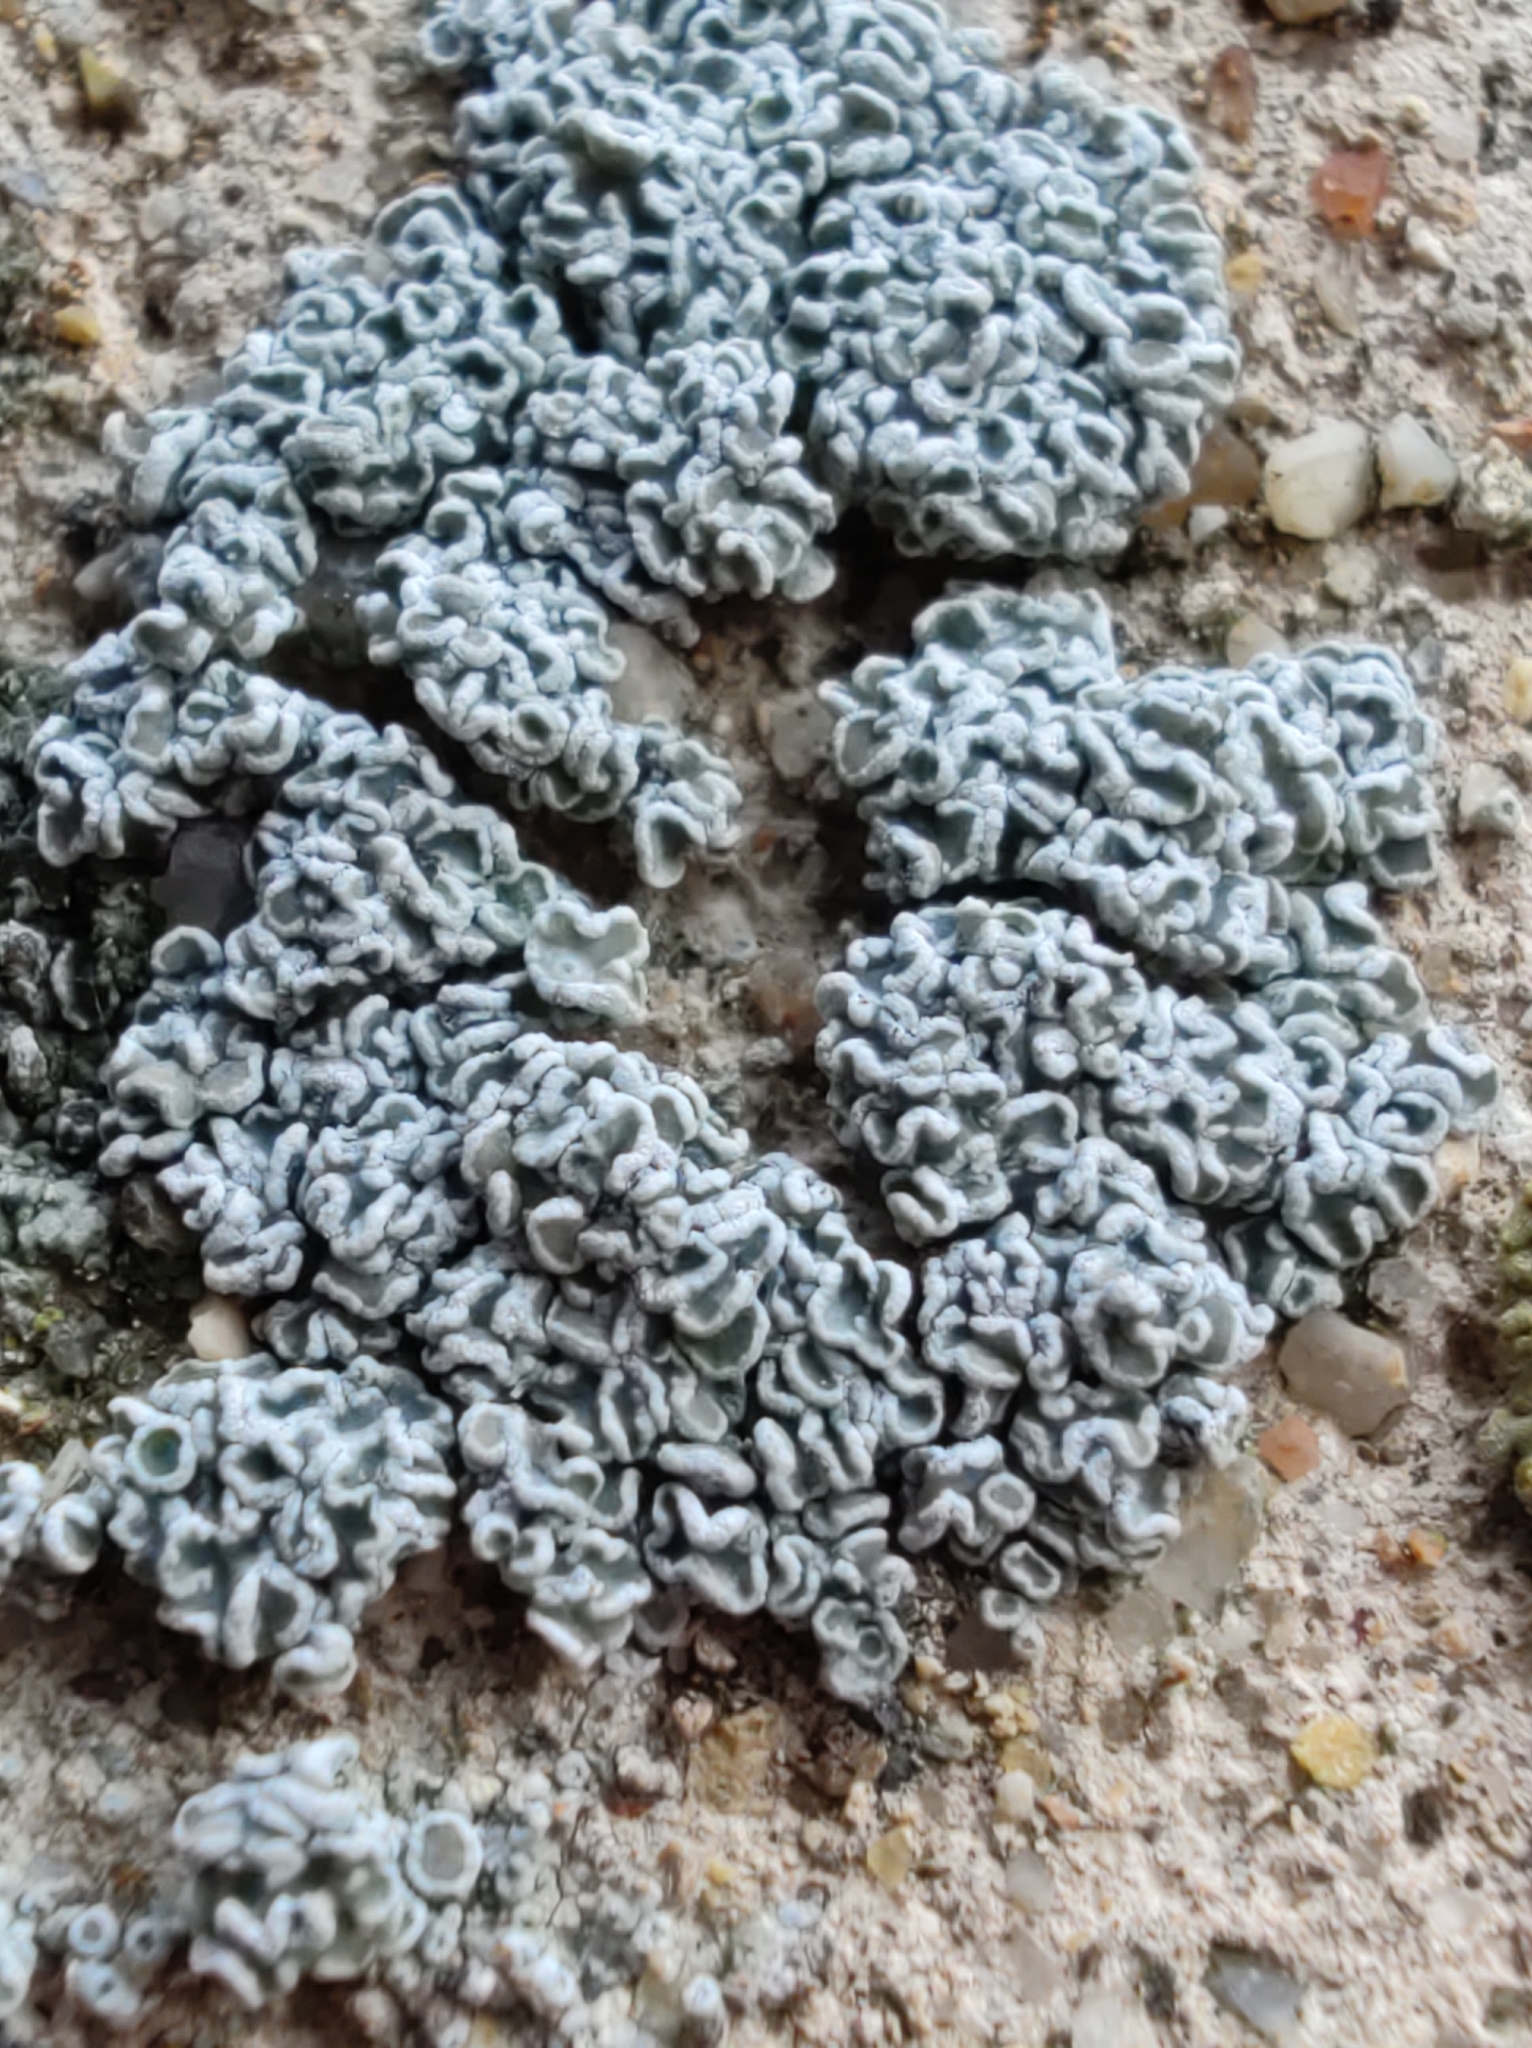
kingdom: Fungi
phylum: Ascomycota
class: Lecanoromycetes
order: Lecanorales
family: Lecanoraceae
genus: Polyozosia
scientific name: Polyozosia albescens
